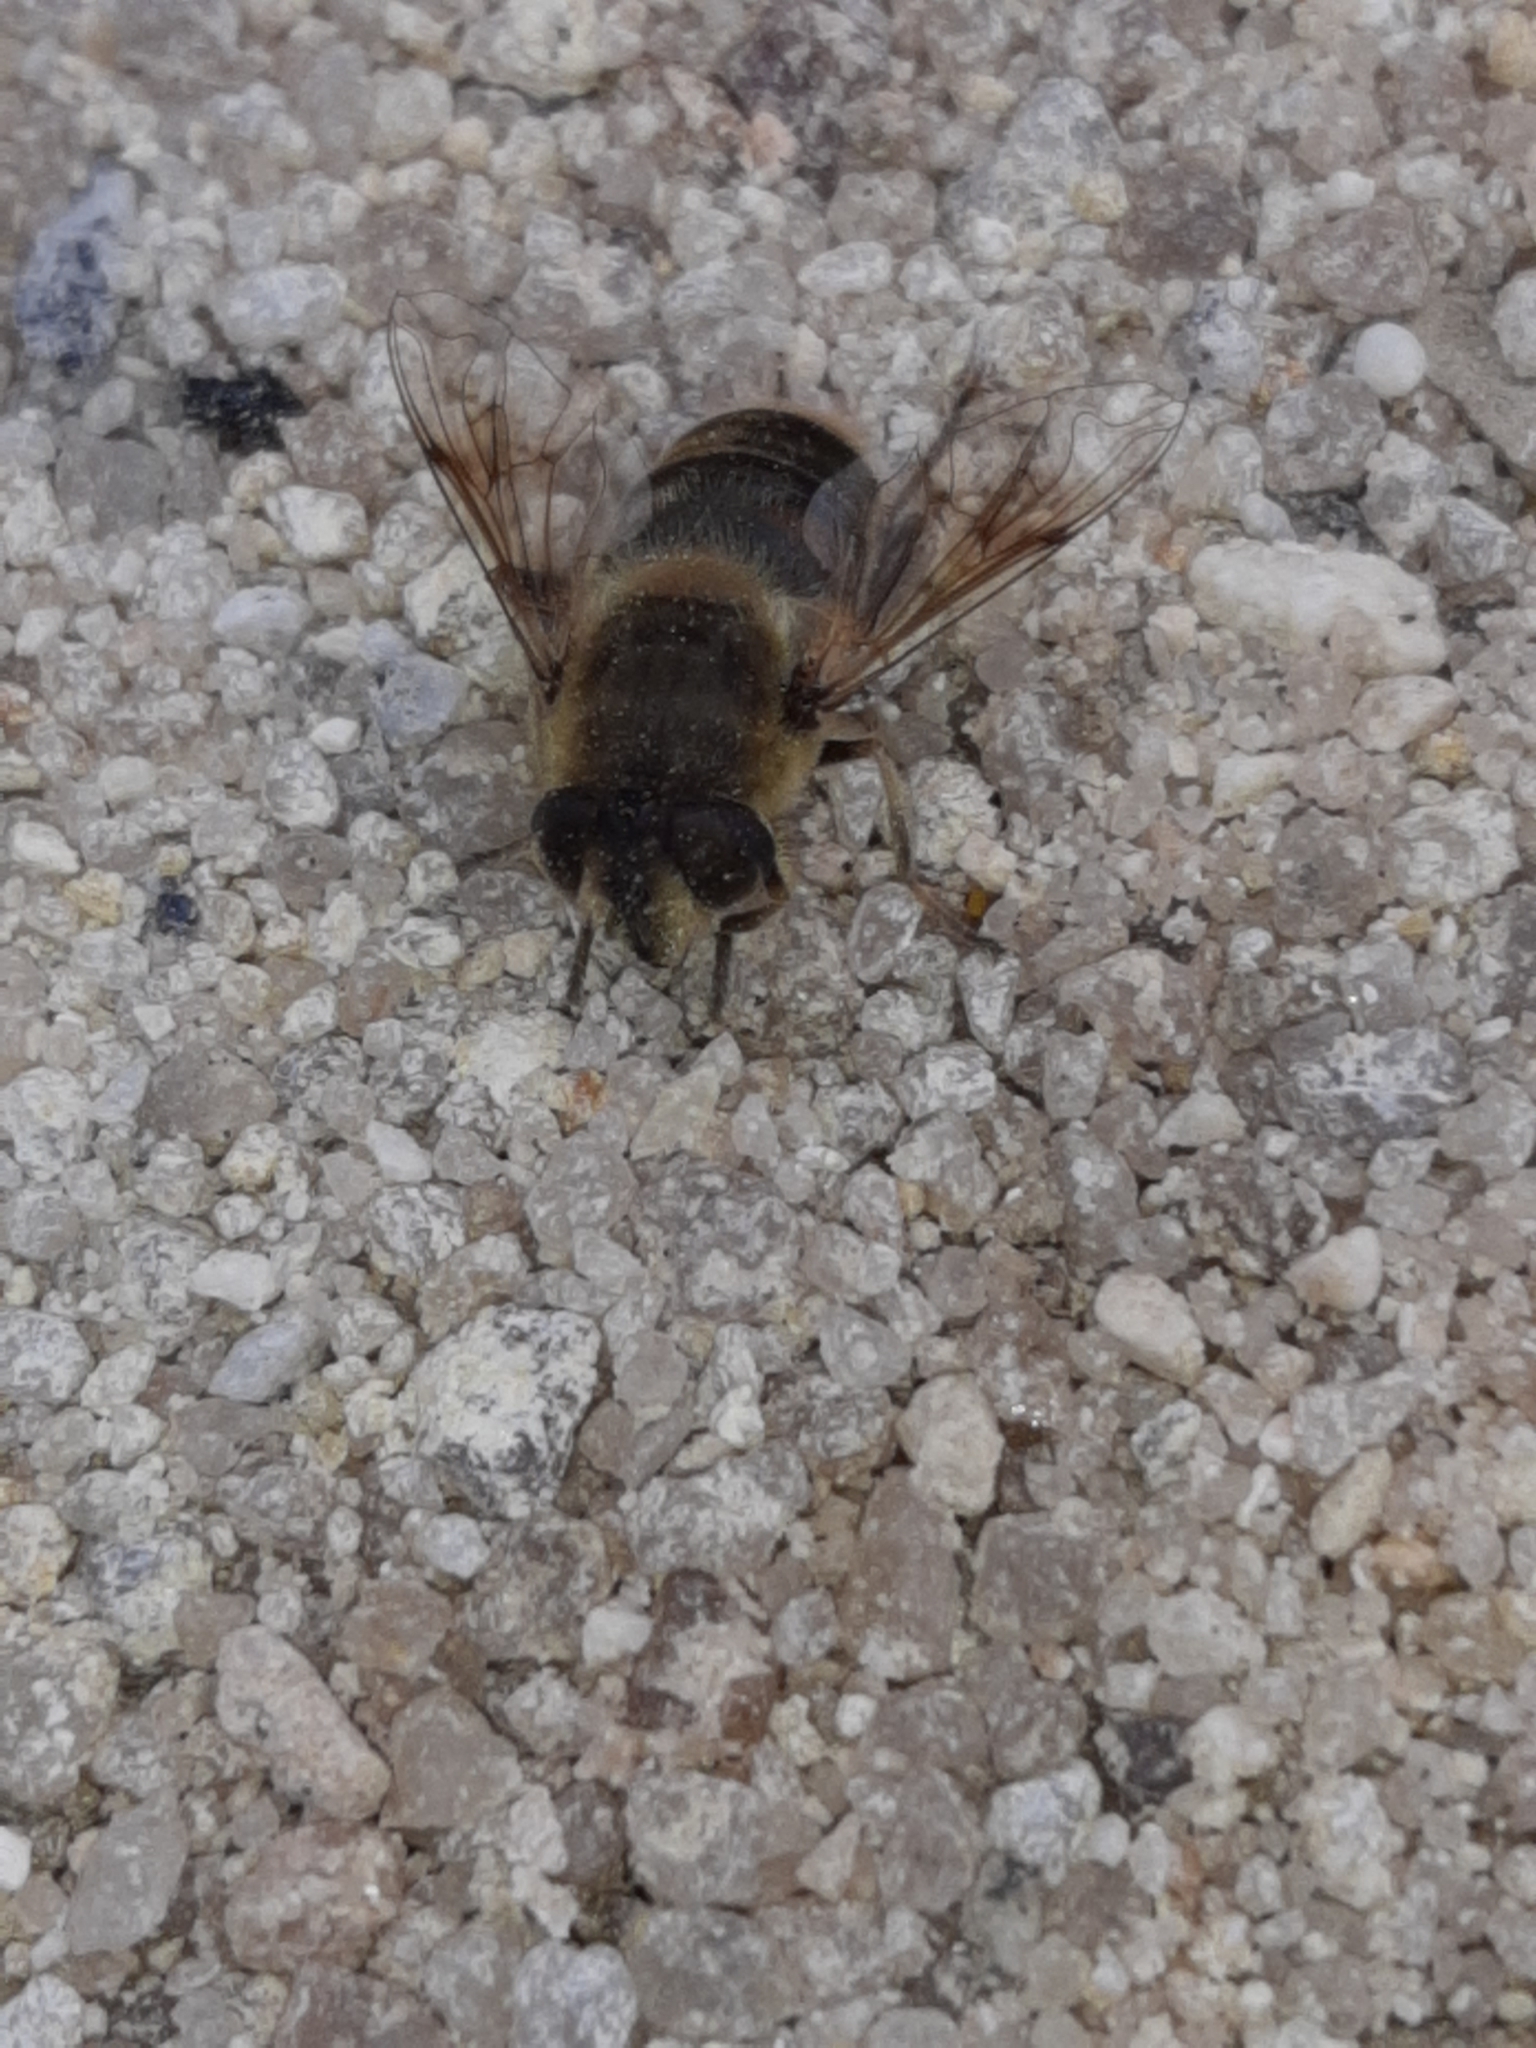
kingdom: Animalia
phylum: Arthropoda
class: Insecta
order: Diptera
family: Syrphidae
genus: Eristalis
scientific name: Eristalis tenax
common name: Drone fly
